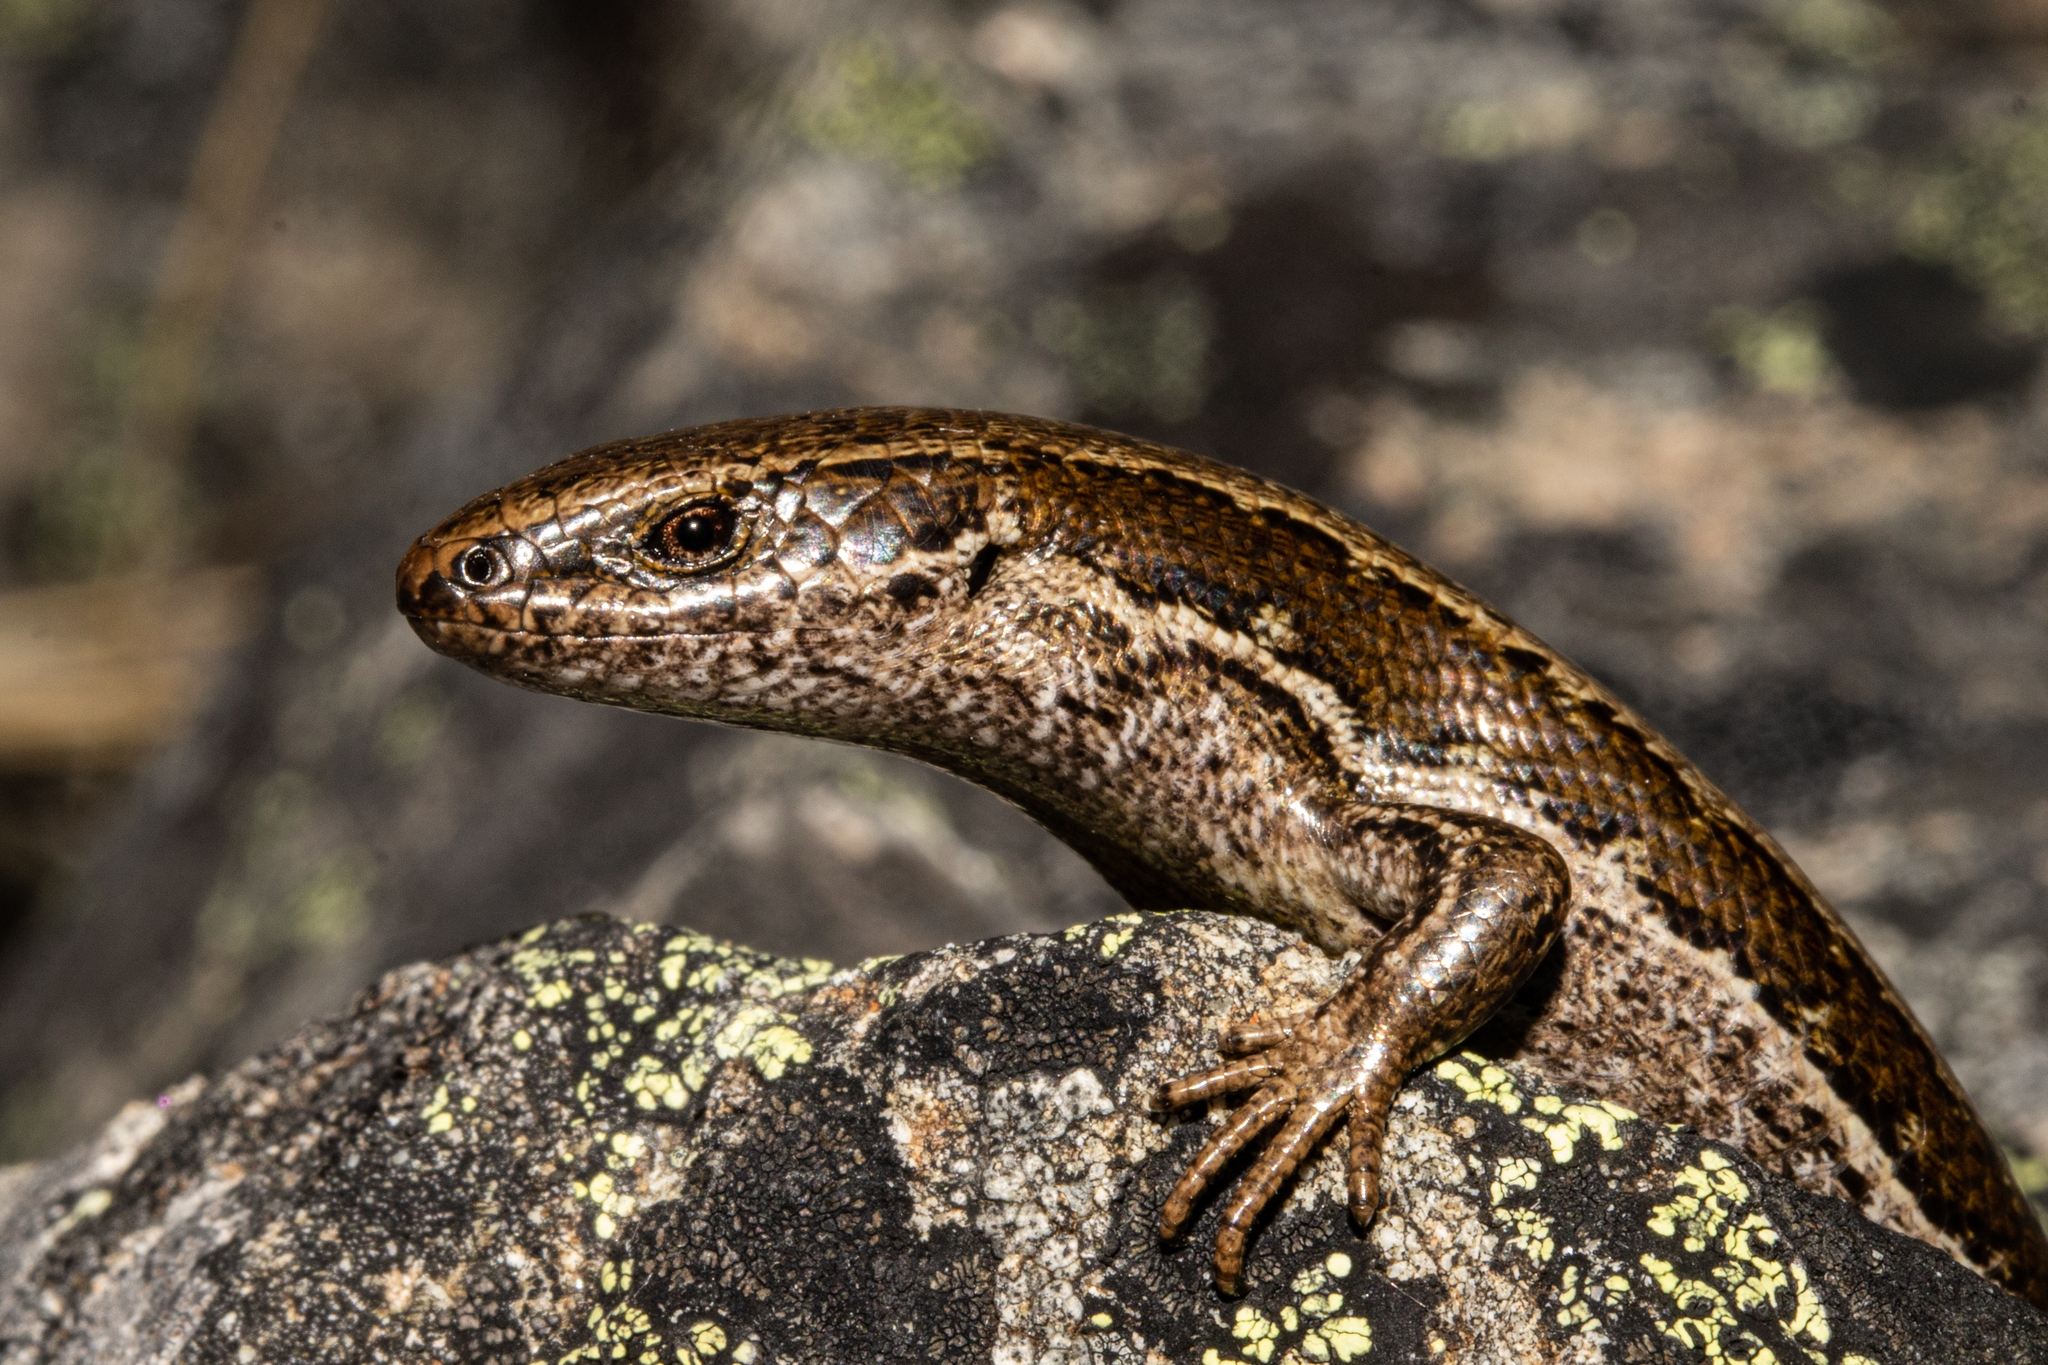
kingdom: Animalia
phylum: Chordata
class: Squamata
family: Scincidae
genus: Oligosoma
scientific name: Oligosoma polychroma
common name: Common new zealand skink
